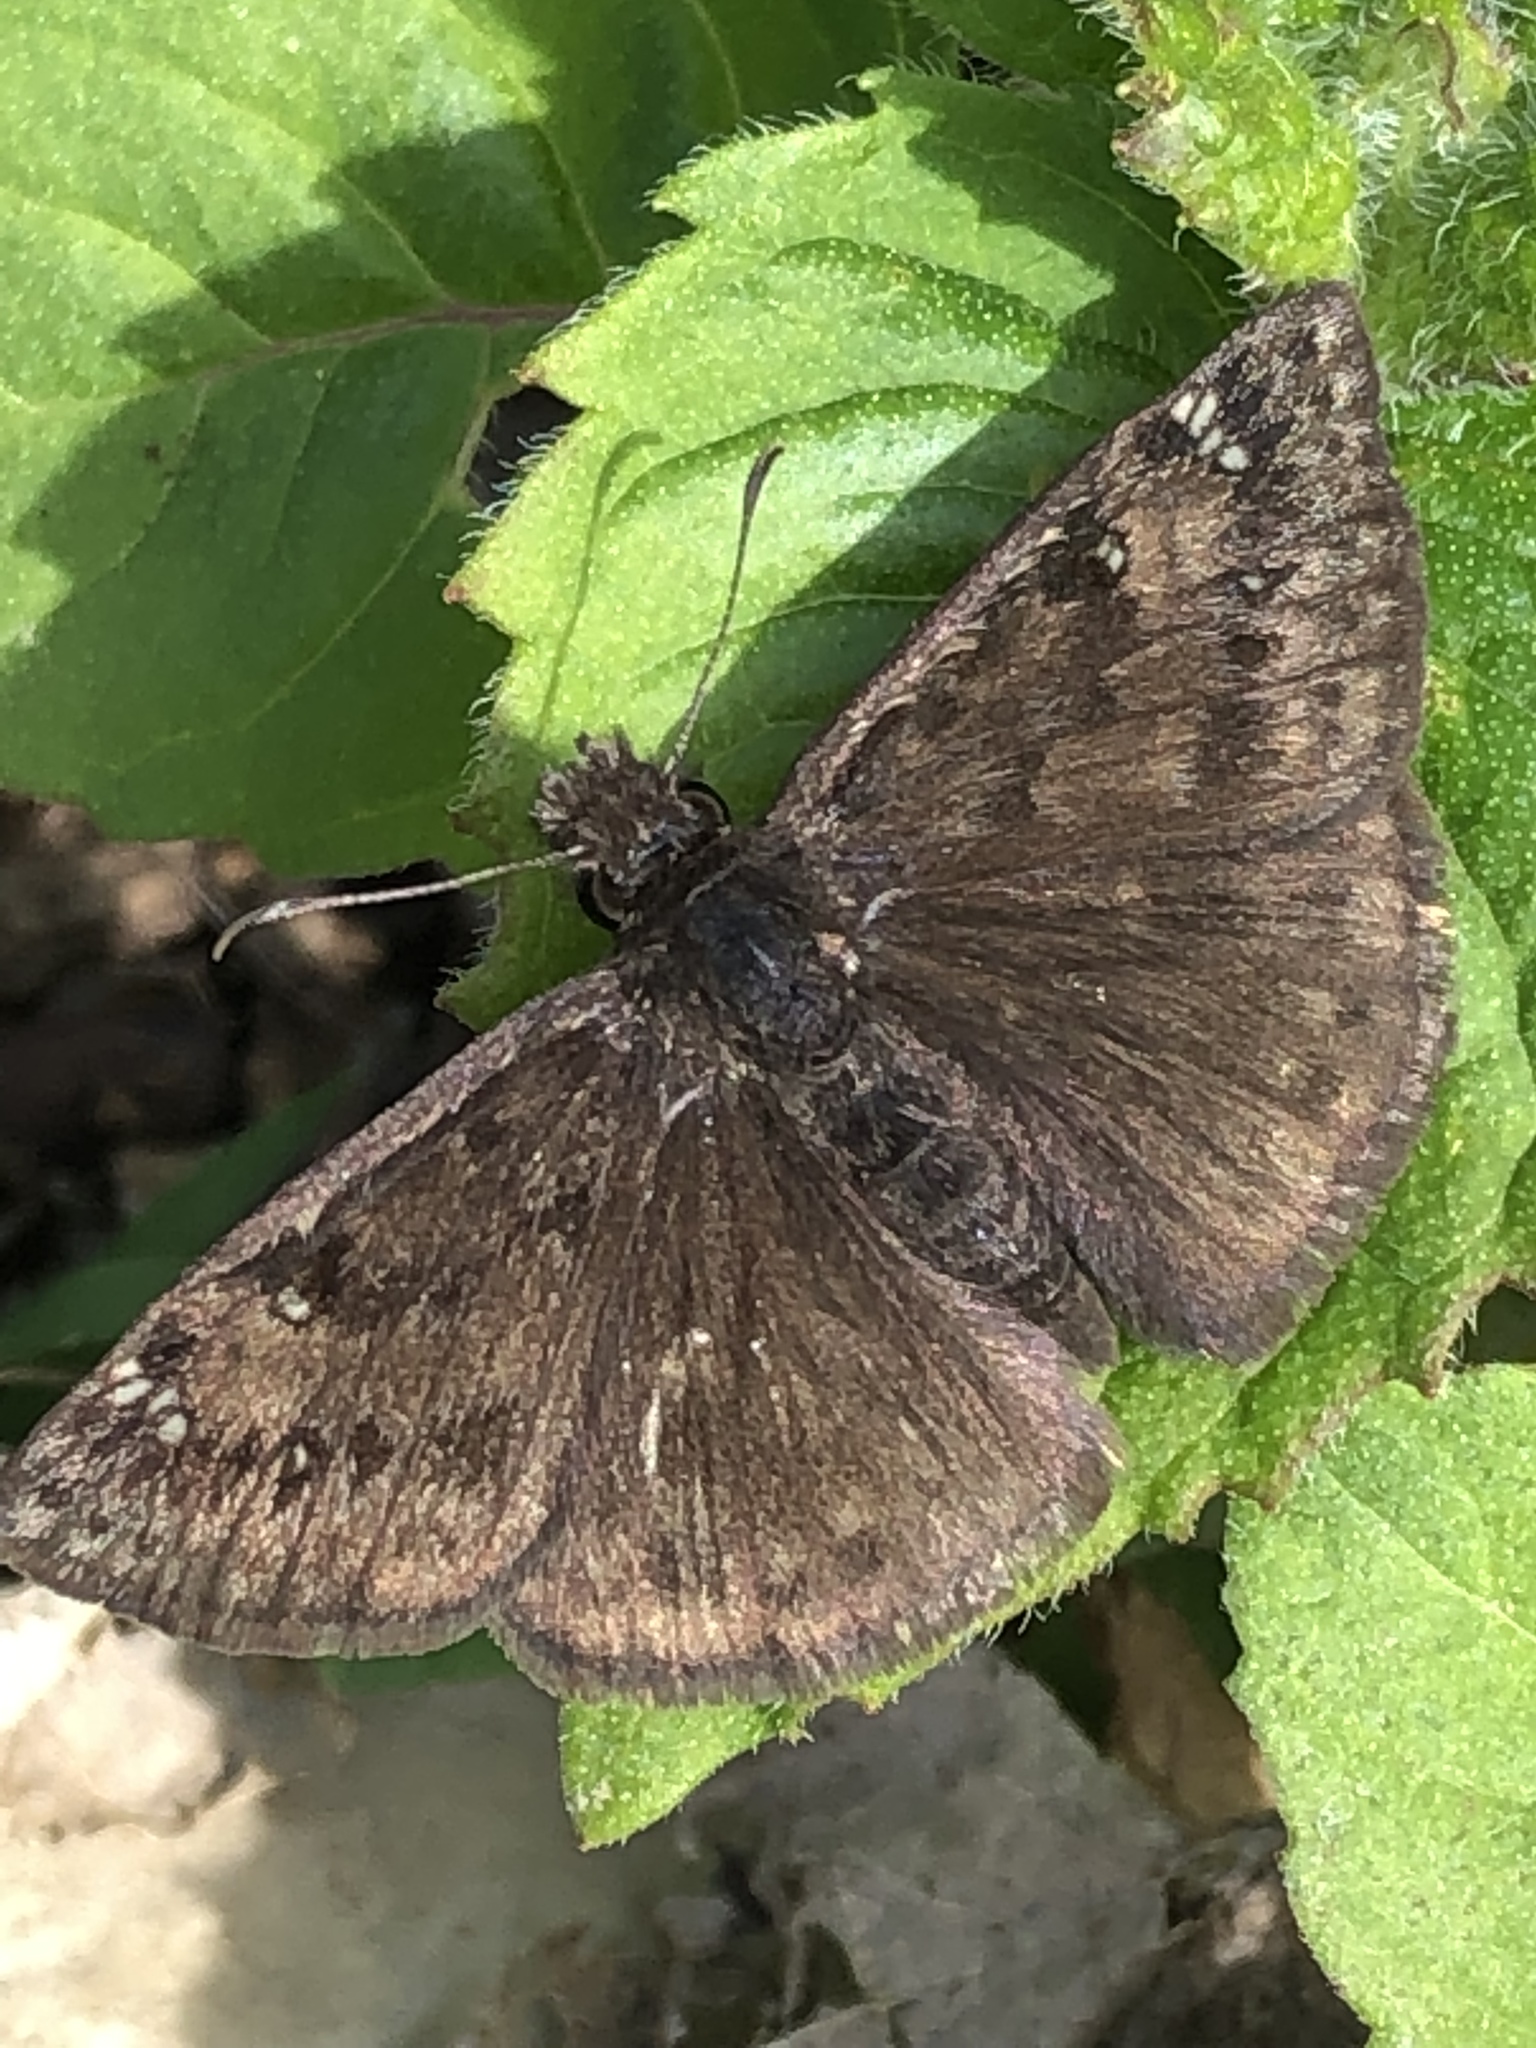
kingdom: Animalia
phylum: Arthropoda
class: Insecta
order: Lepidoptera
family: Hesperiidae
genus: Erynnis
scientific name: Erynnis horatius
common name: Horace's duskywing
